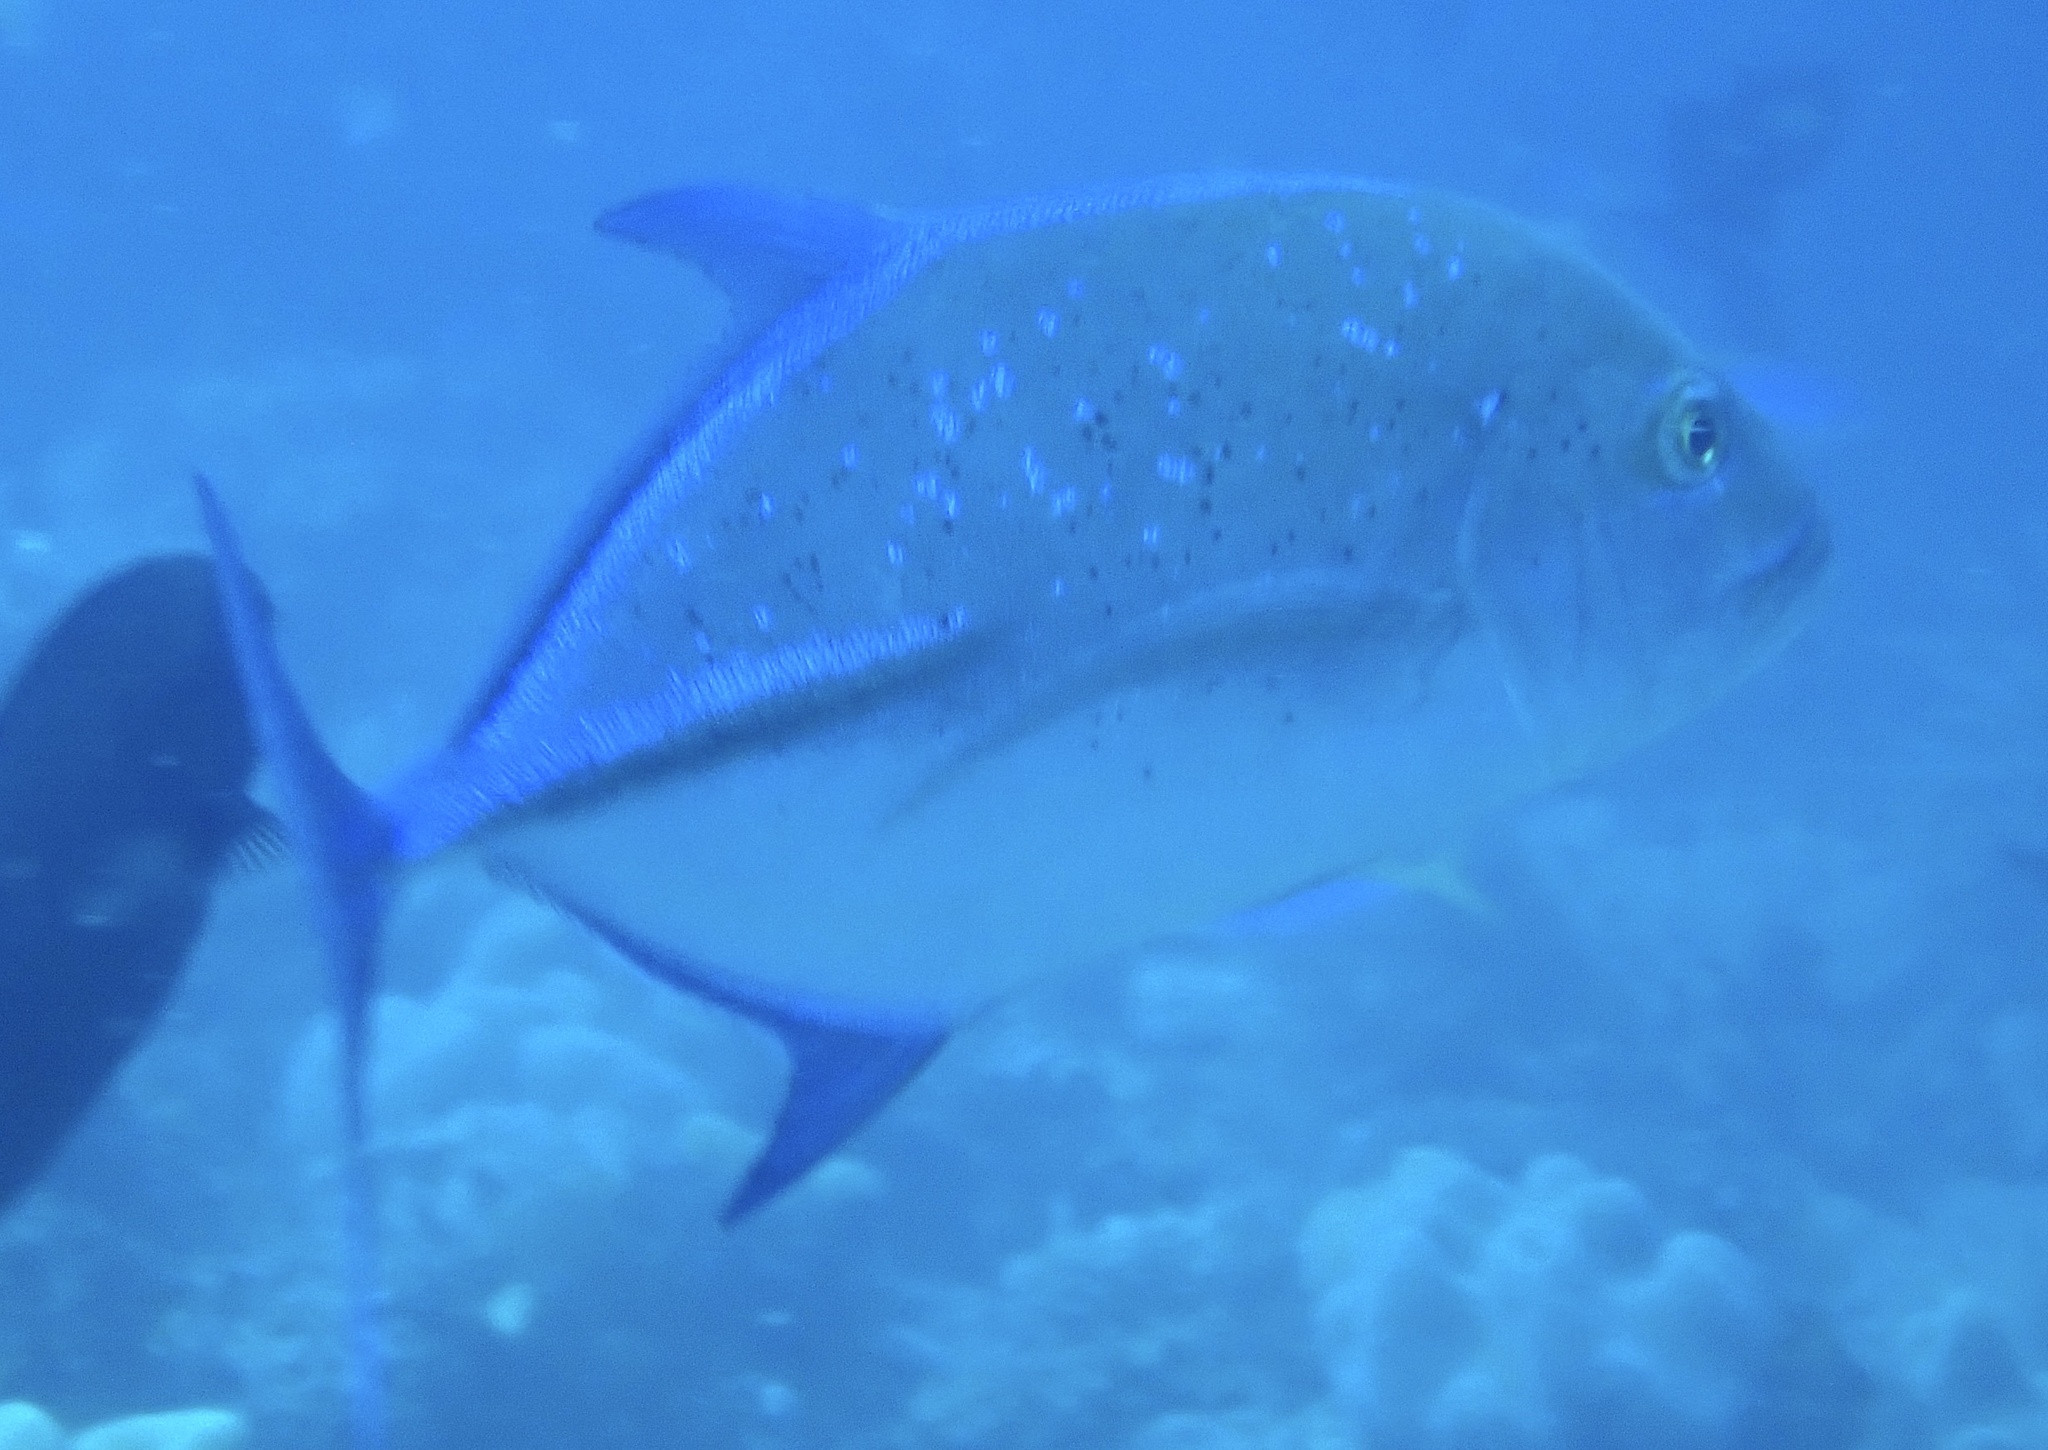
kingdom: Animalia
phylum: Chordata
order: Perciformes
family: Carangidae
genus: Caranx
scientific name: Caranx melampygus
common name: Bluefin trevally
